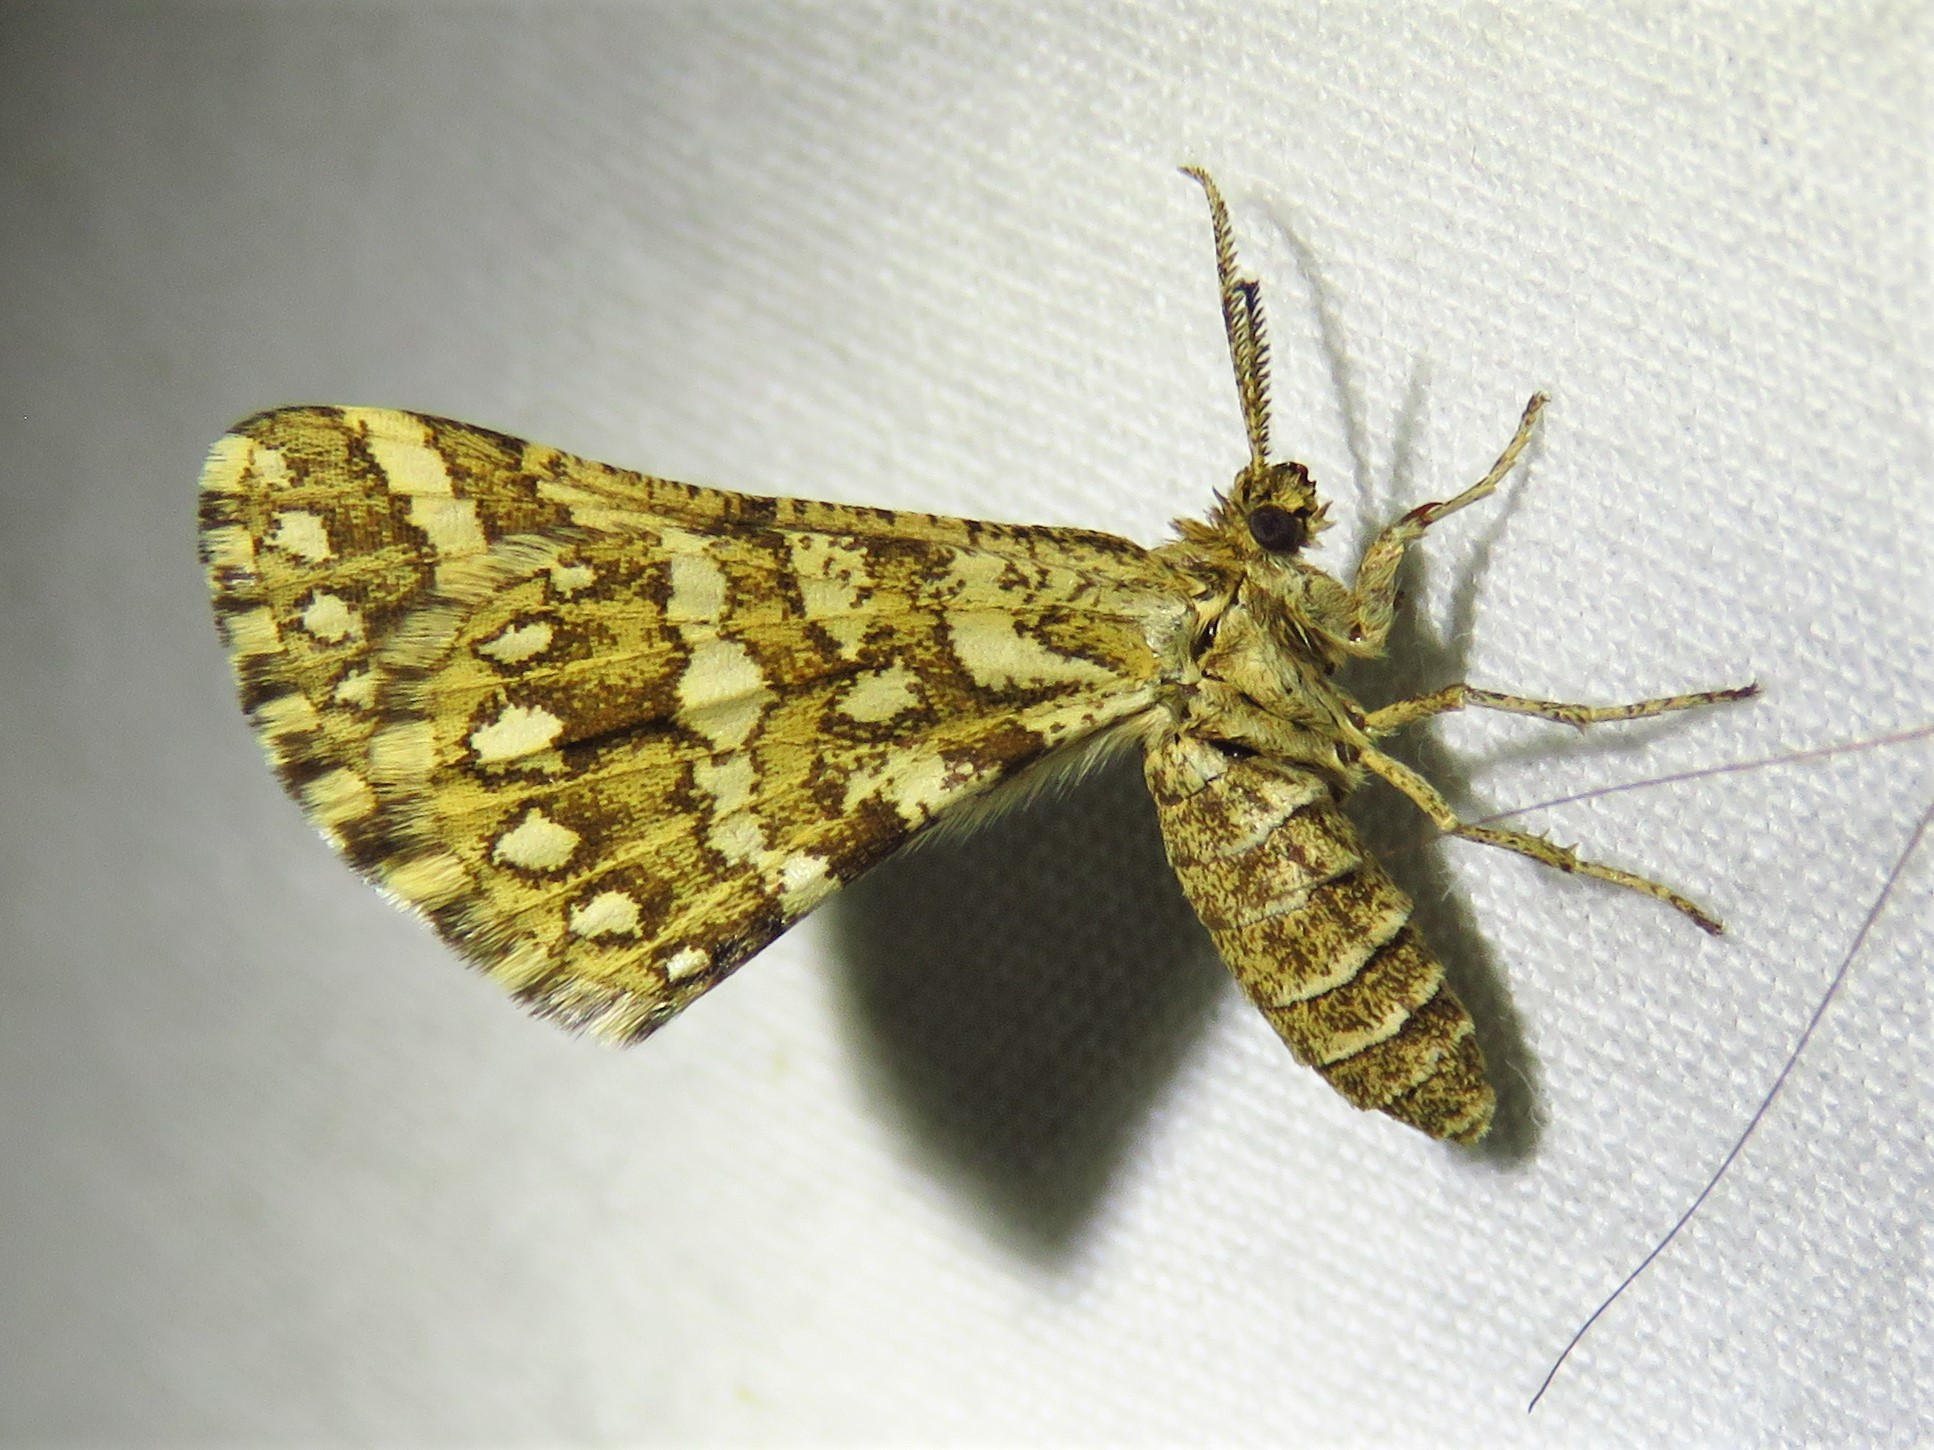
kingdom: Animalia
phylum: Arthropoda
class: Insecta
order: Lepidoptera
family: Geometridae
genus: Narraga
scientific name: Narraga fimetaria
